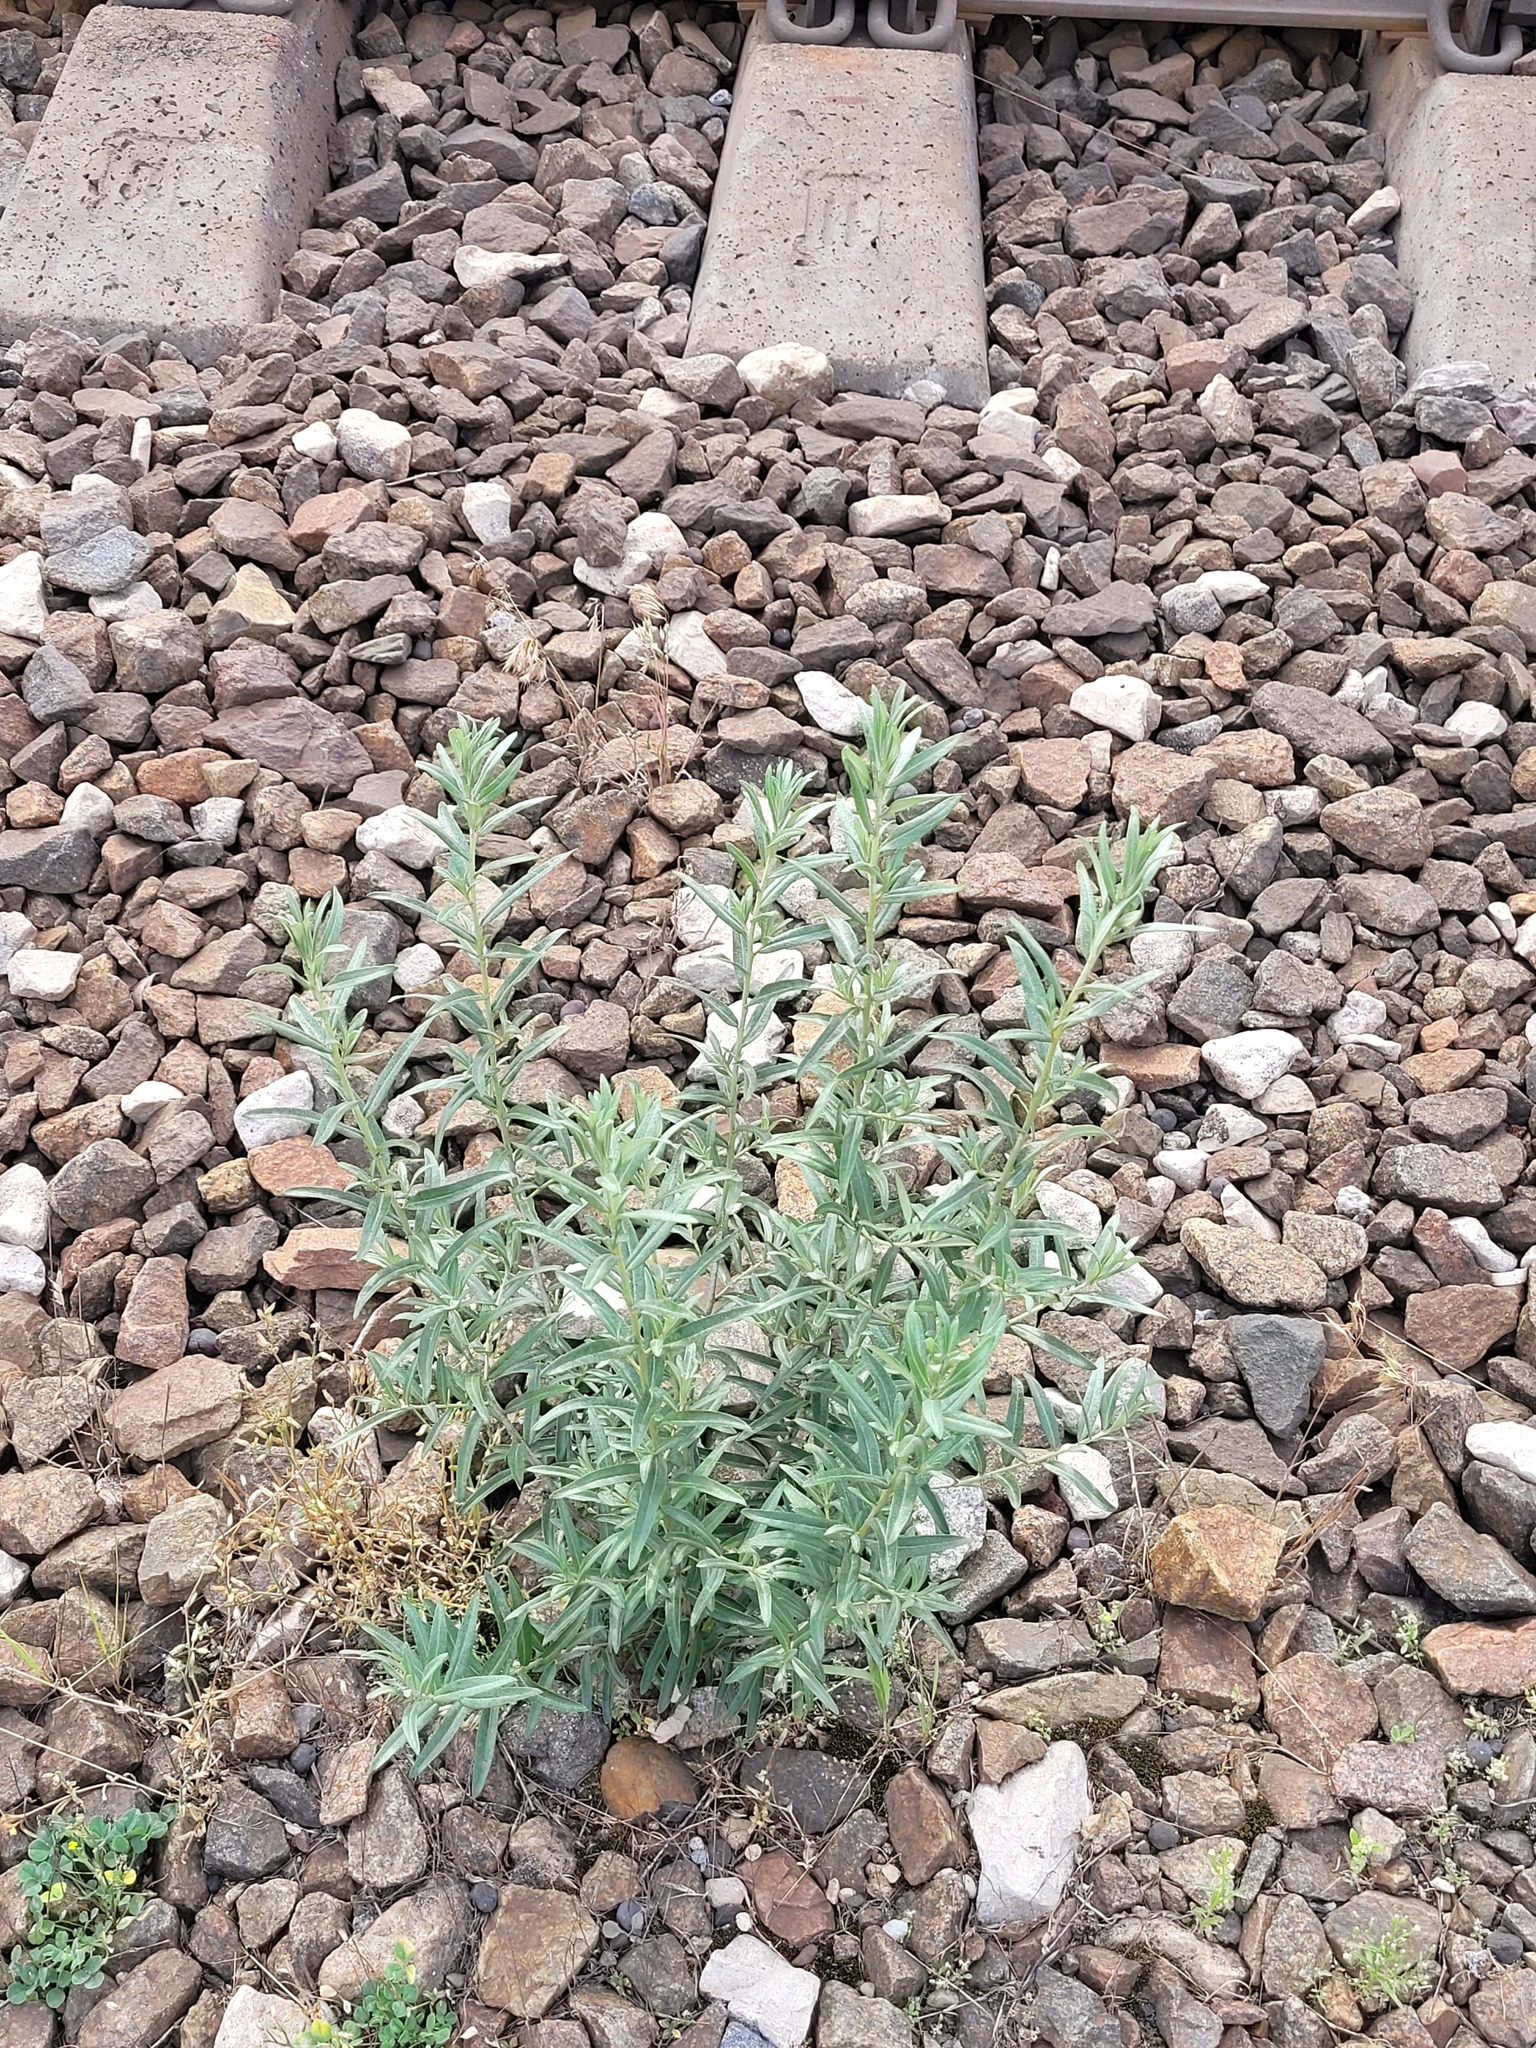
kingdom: Plantae
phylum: Tracheophyta
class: Magnoliopsida
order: Rosales
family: Elaeagnaceae
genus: Hippophae
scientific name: Hippophae rhamnoides
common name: Sea-buckthorn
